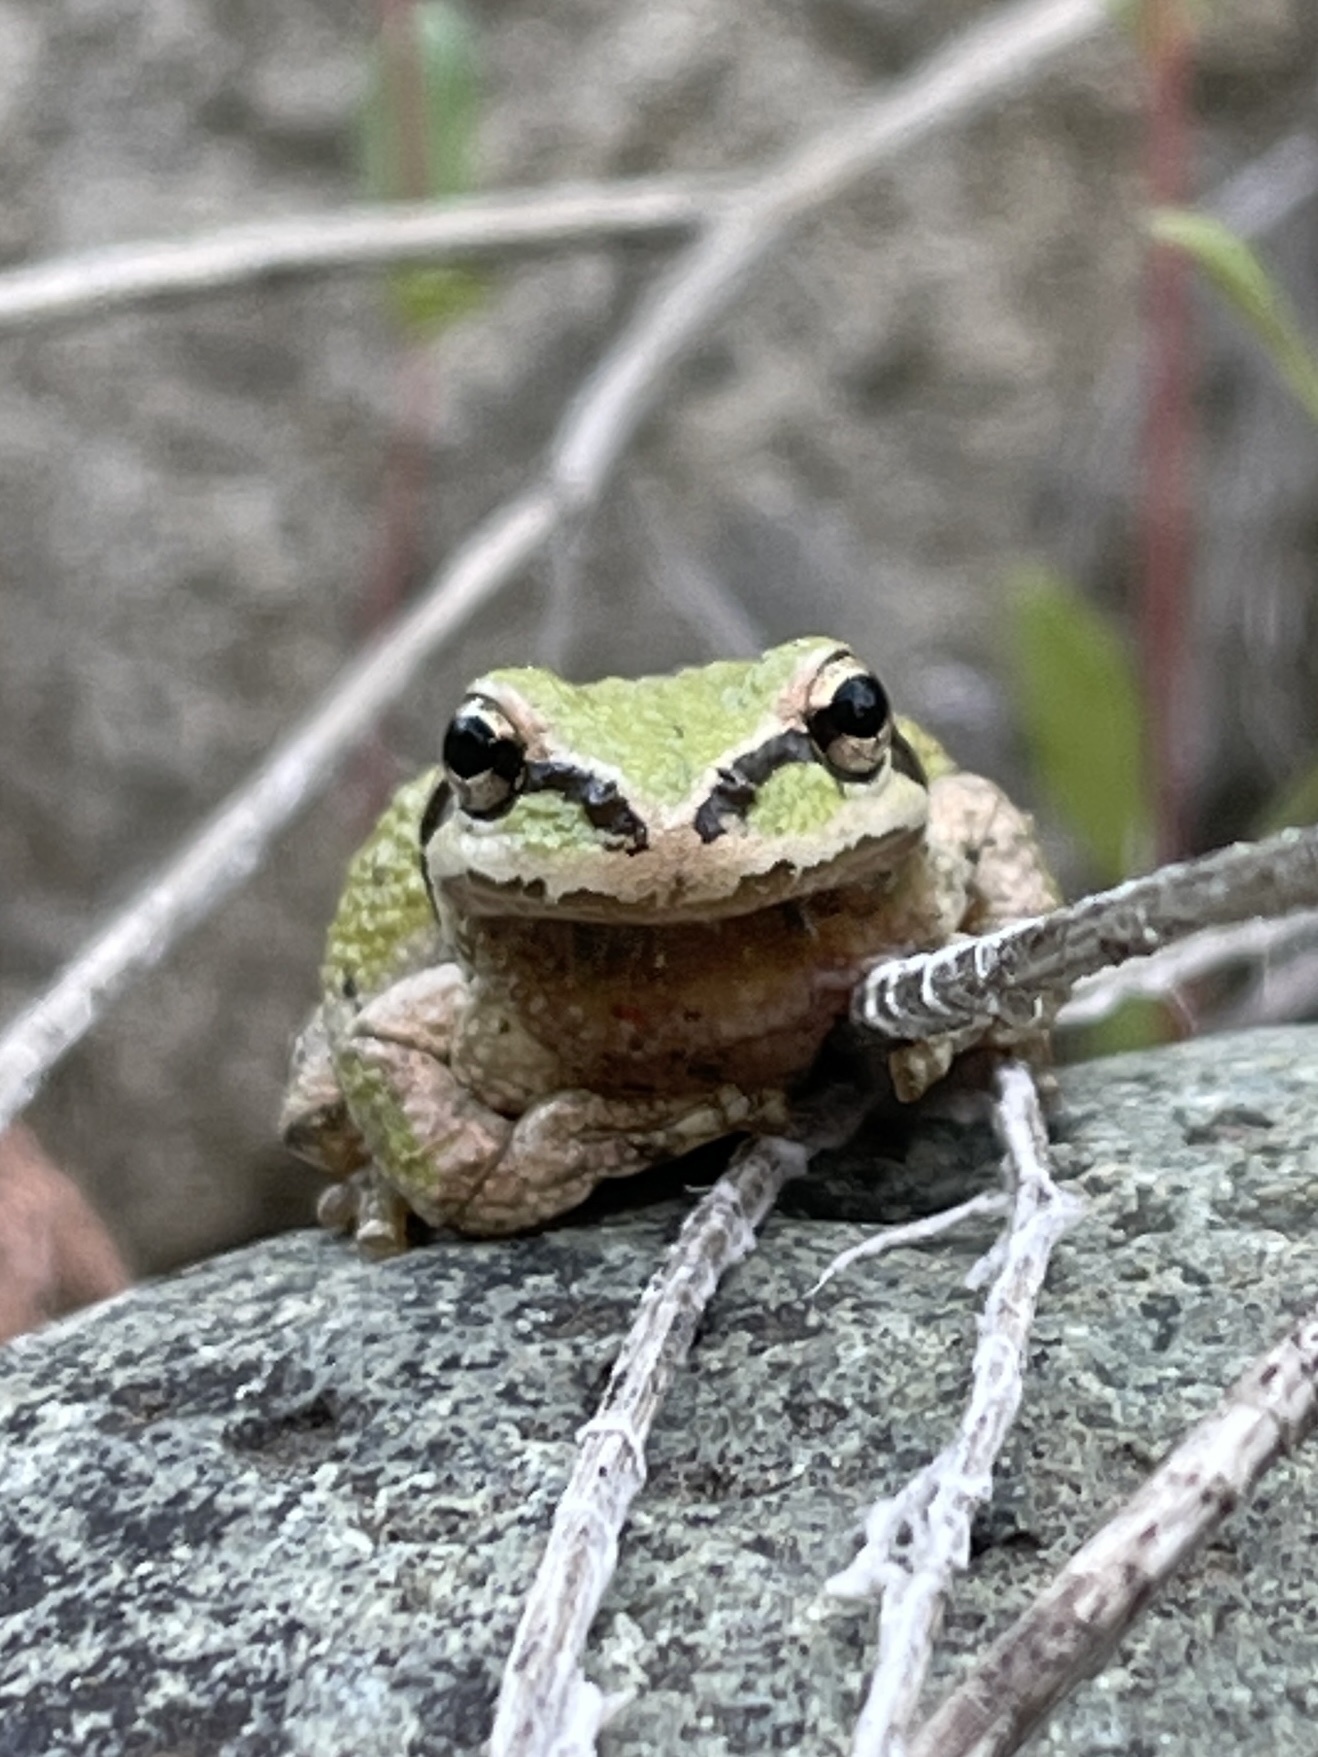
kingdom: Animalia
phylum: Chordata
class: Amphibia
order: Anura
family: Hylidae
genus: Pseudacris
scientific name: Pseudacris regilla
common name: Pacific chorus frog
